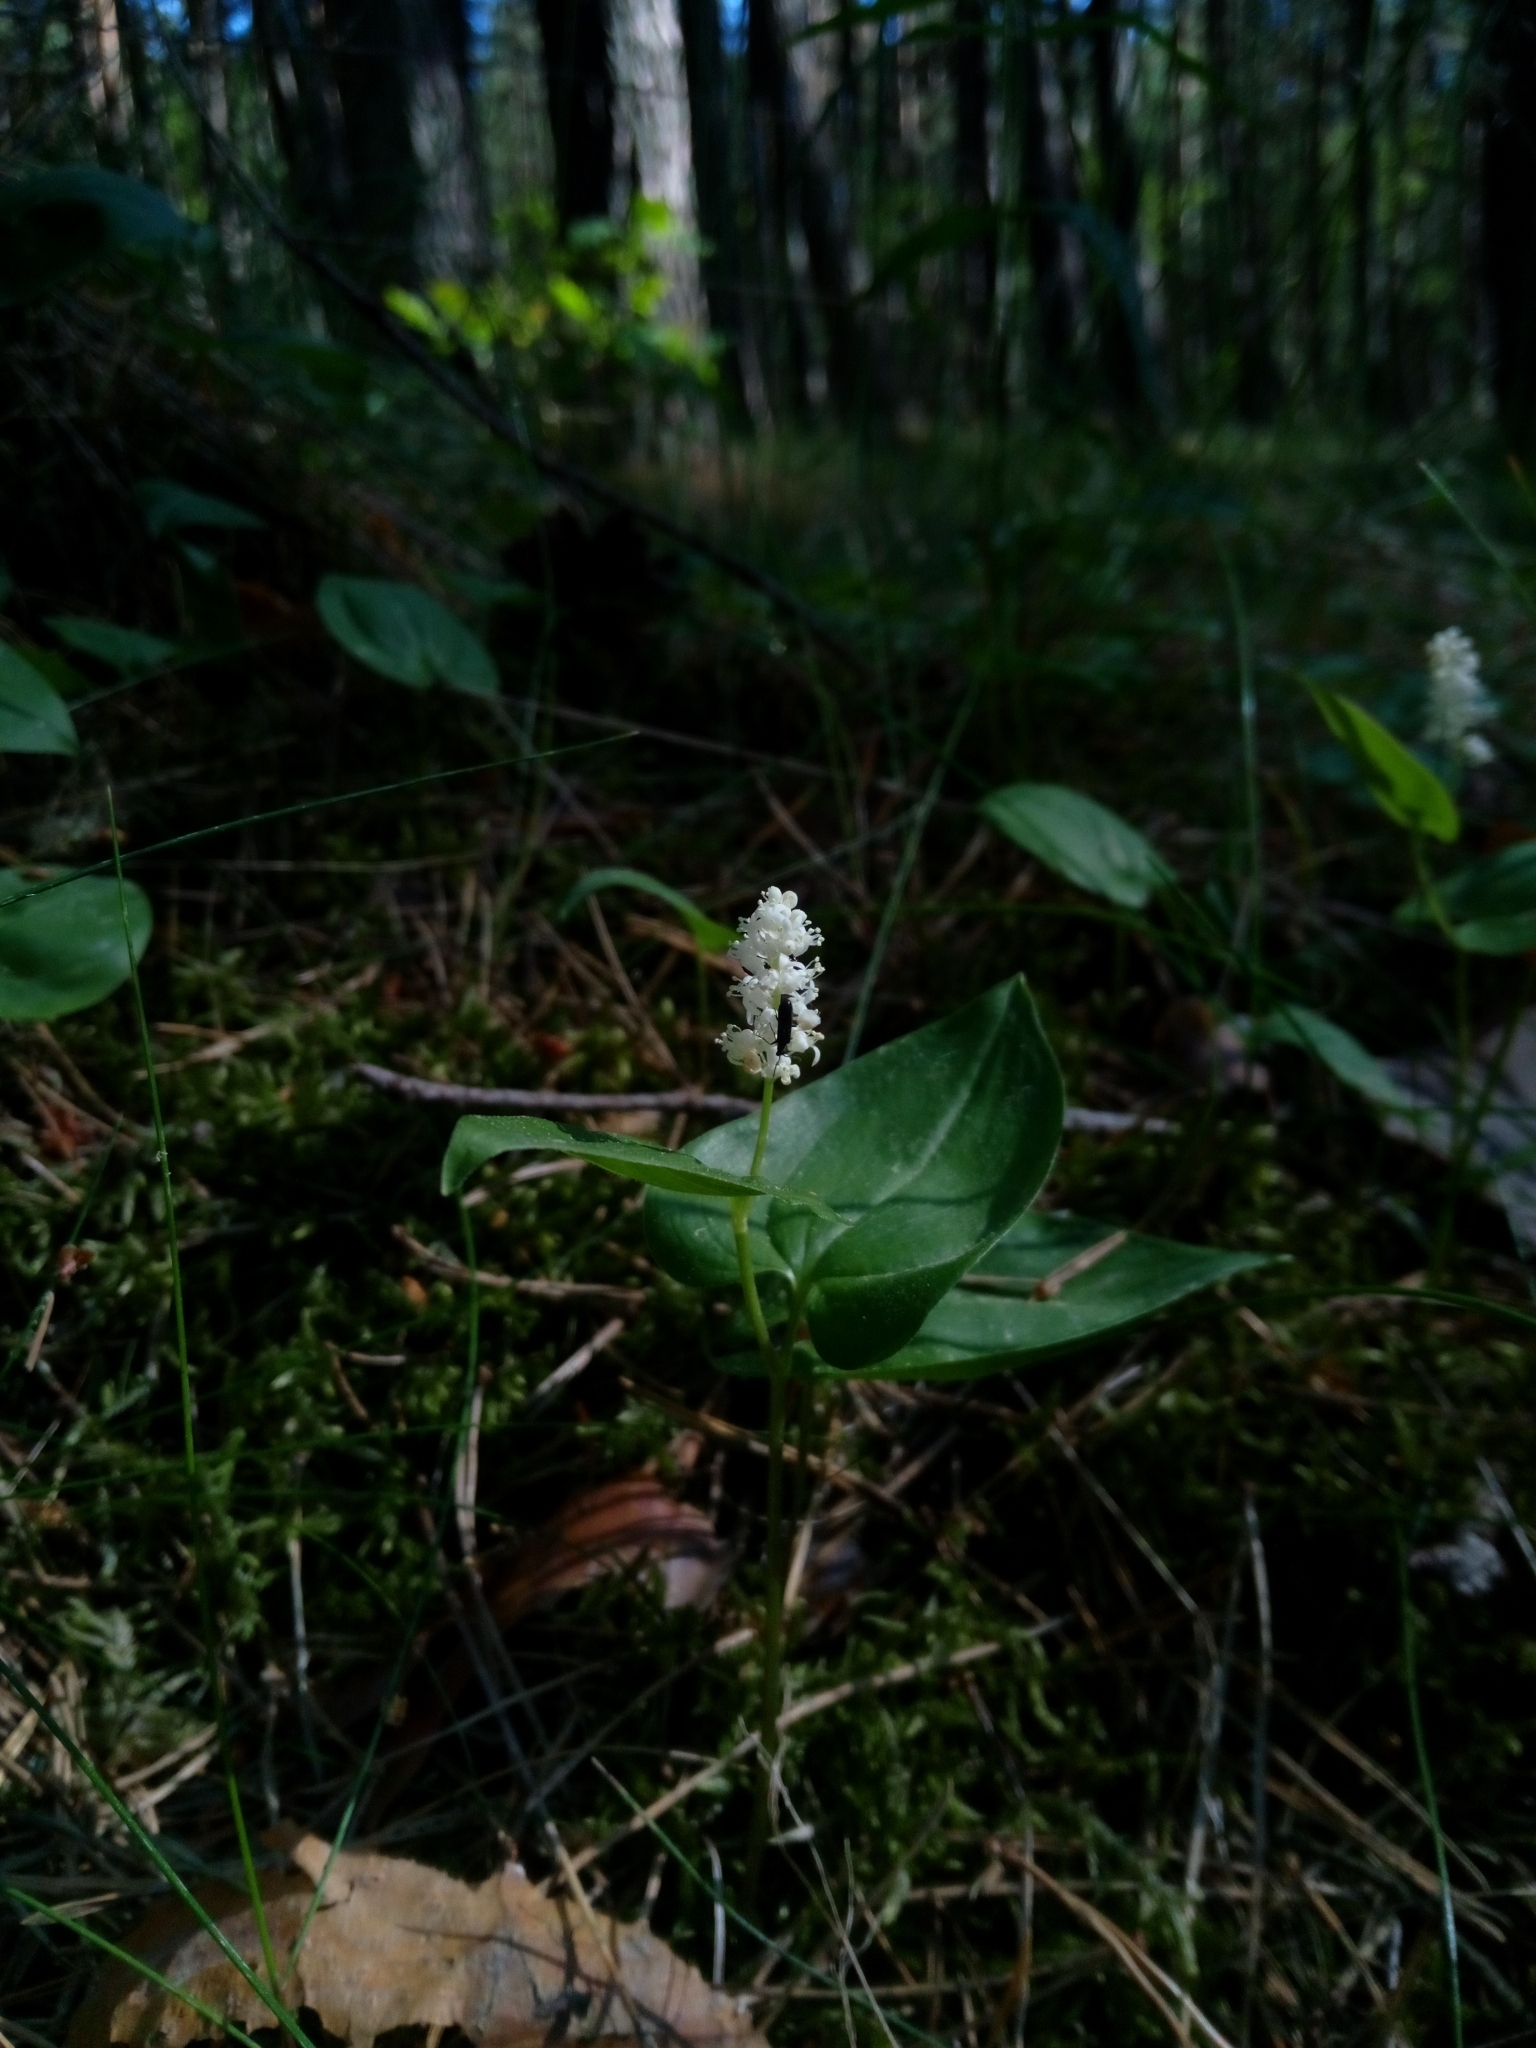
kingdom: Plantae
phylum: Tracheophyta
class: Liliopsida
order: Asparagales
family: Asparagaceae
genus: Maianthemum
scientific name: Maianthemum bifolium
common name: May lily
